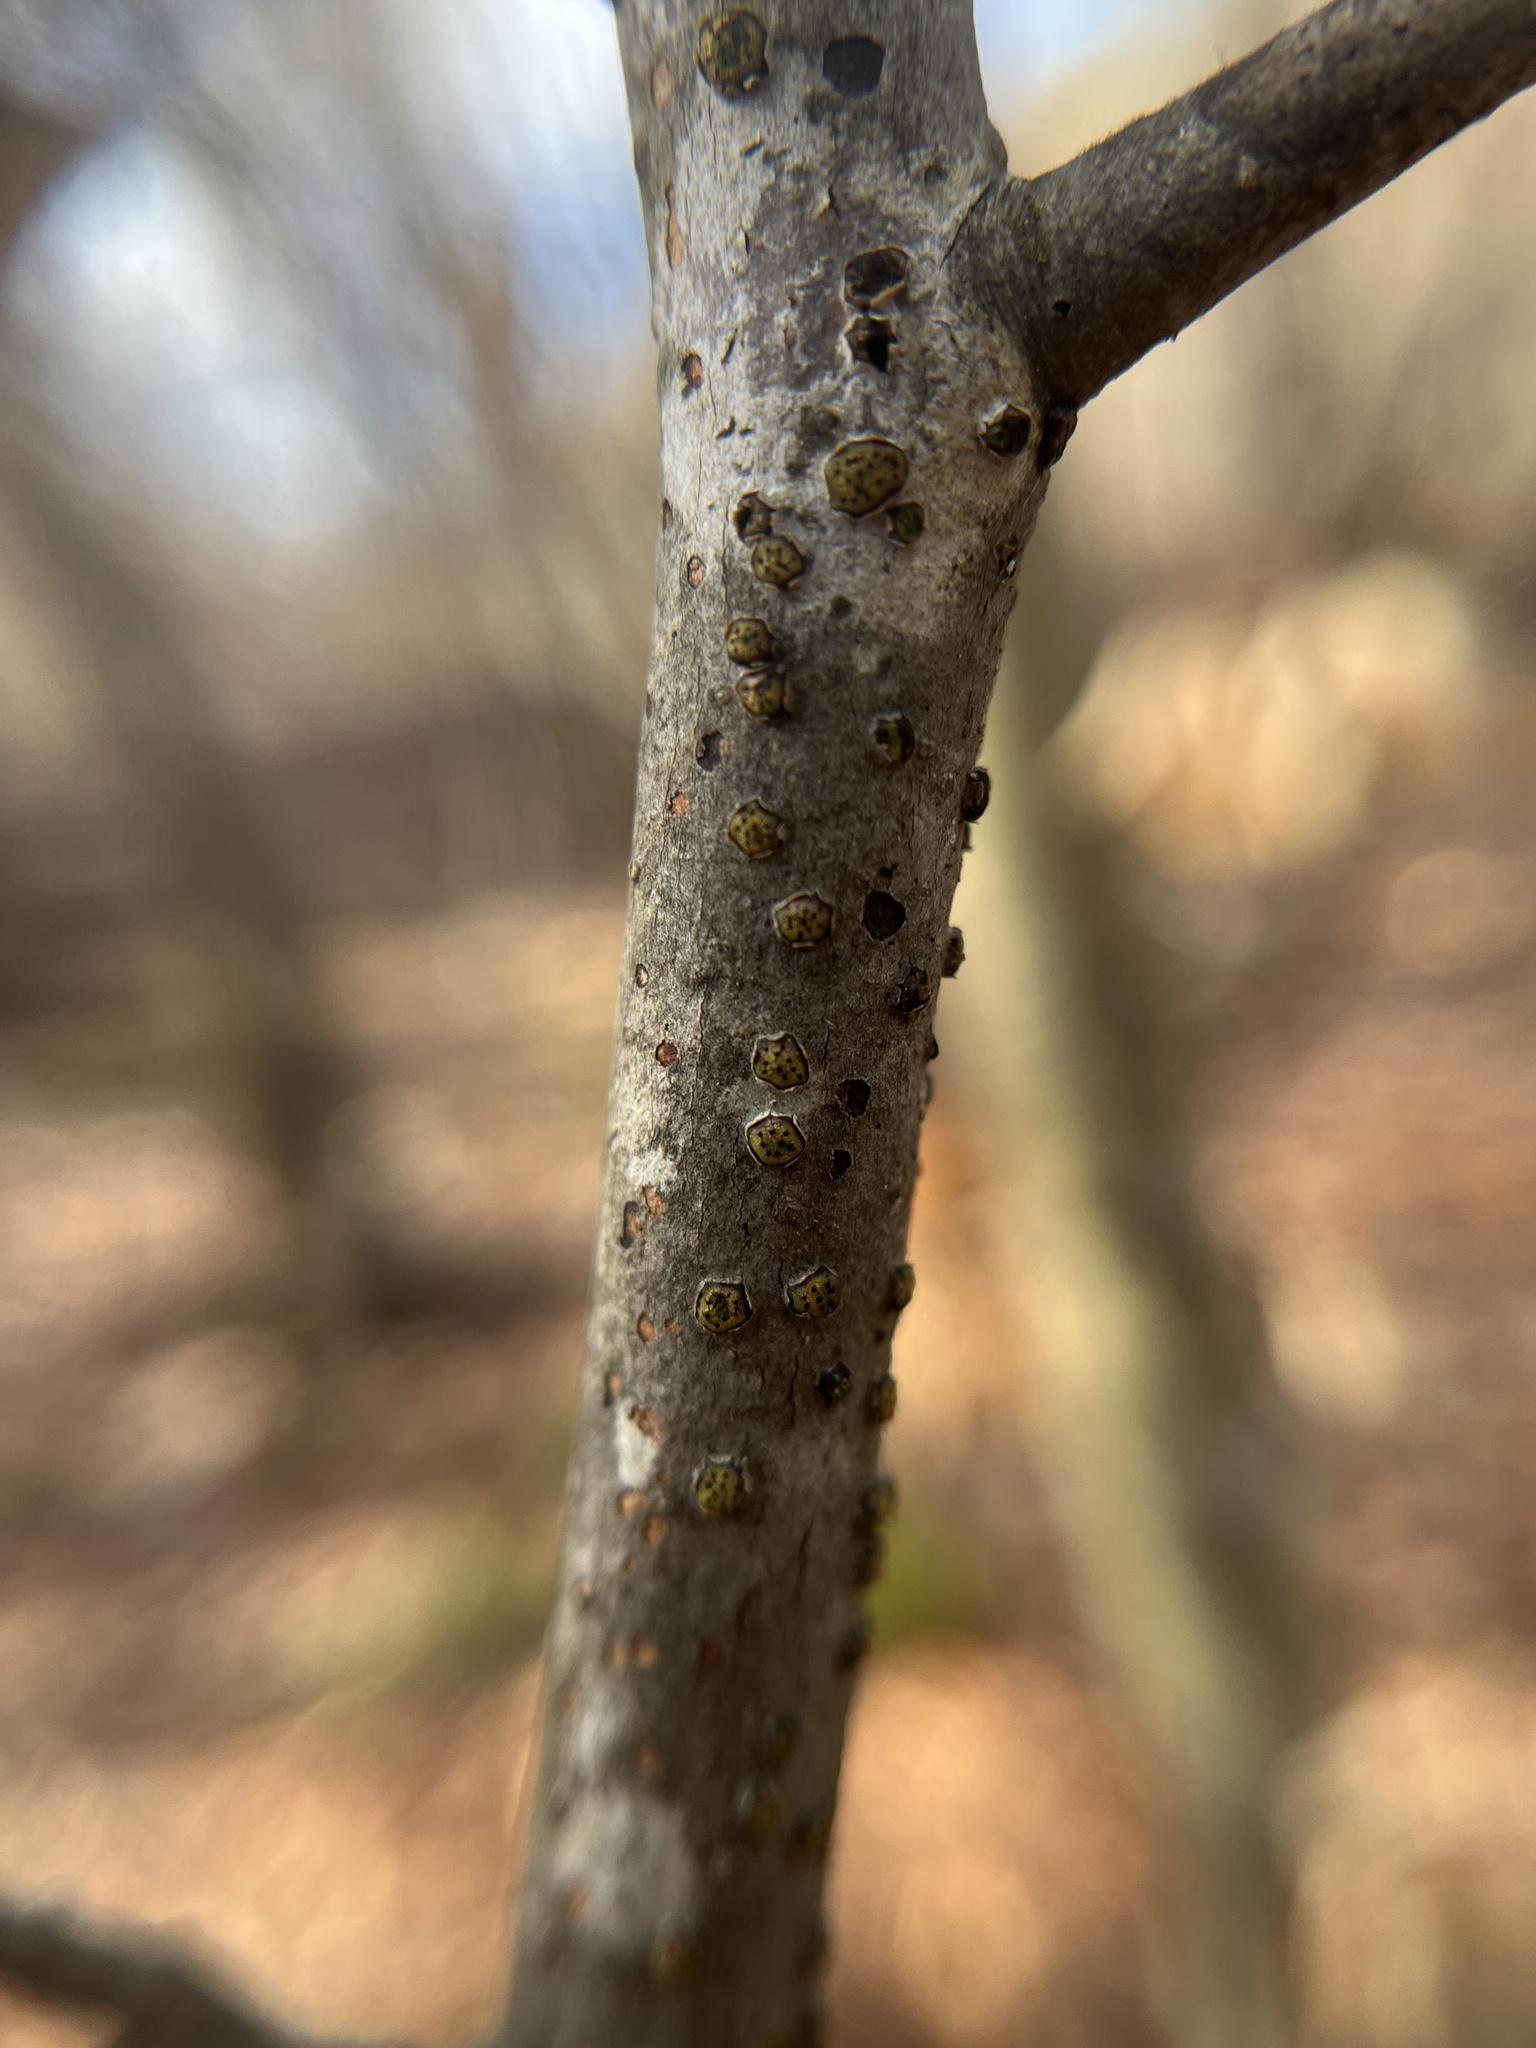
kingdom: Fungi
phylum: Ascomycota
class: Sordariomycetes
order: Xylariales
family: Diatrypaceae
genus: Diatrype
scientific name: Diatrype virescens
